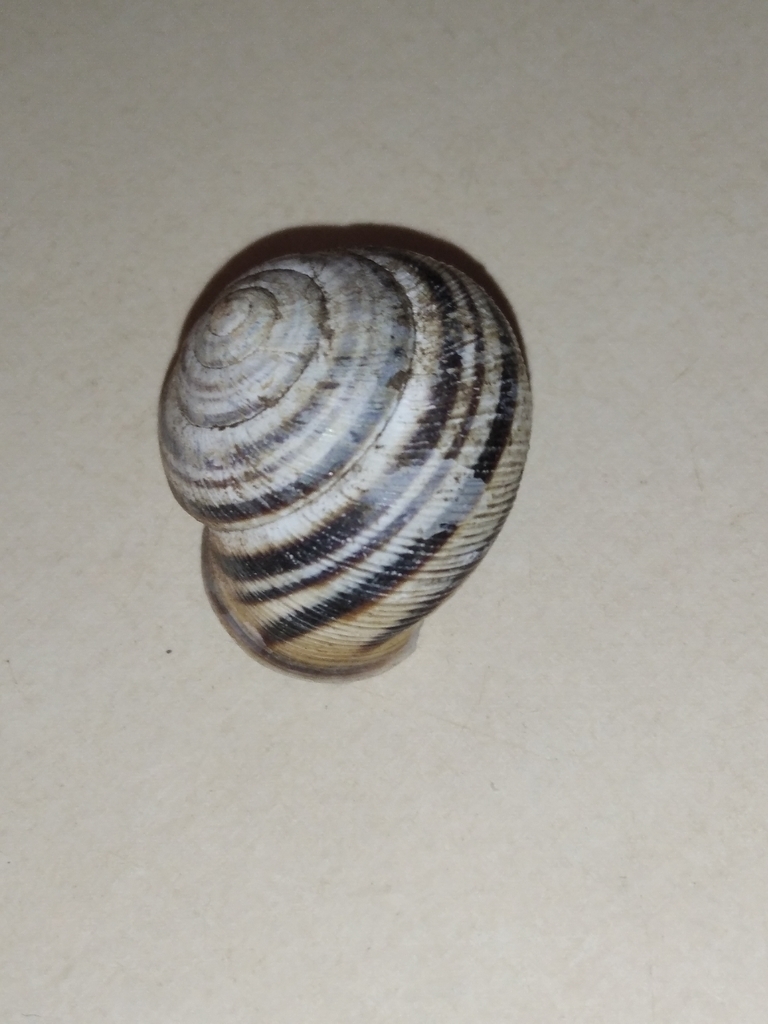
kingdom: Animalia
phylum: Mollusca
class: Gastropoda
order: Stylommatophora
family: Helicidae
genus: Caucasotachea
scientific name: Caucasotachea vindobonensis
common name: European helicid land snail
